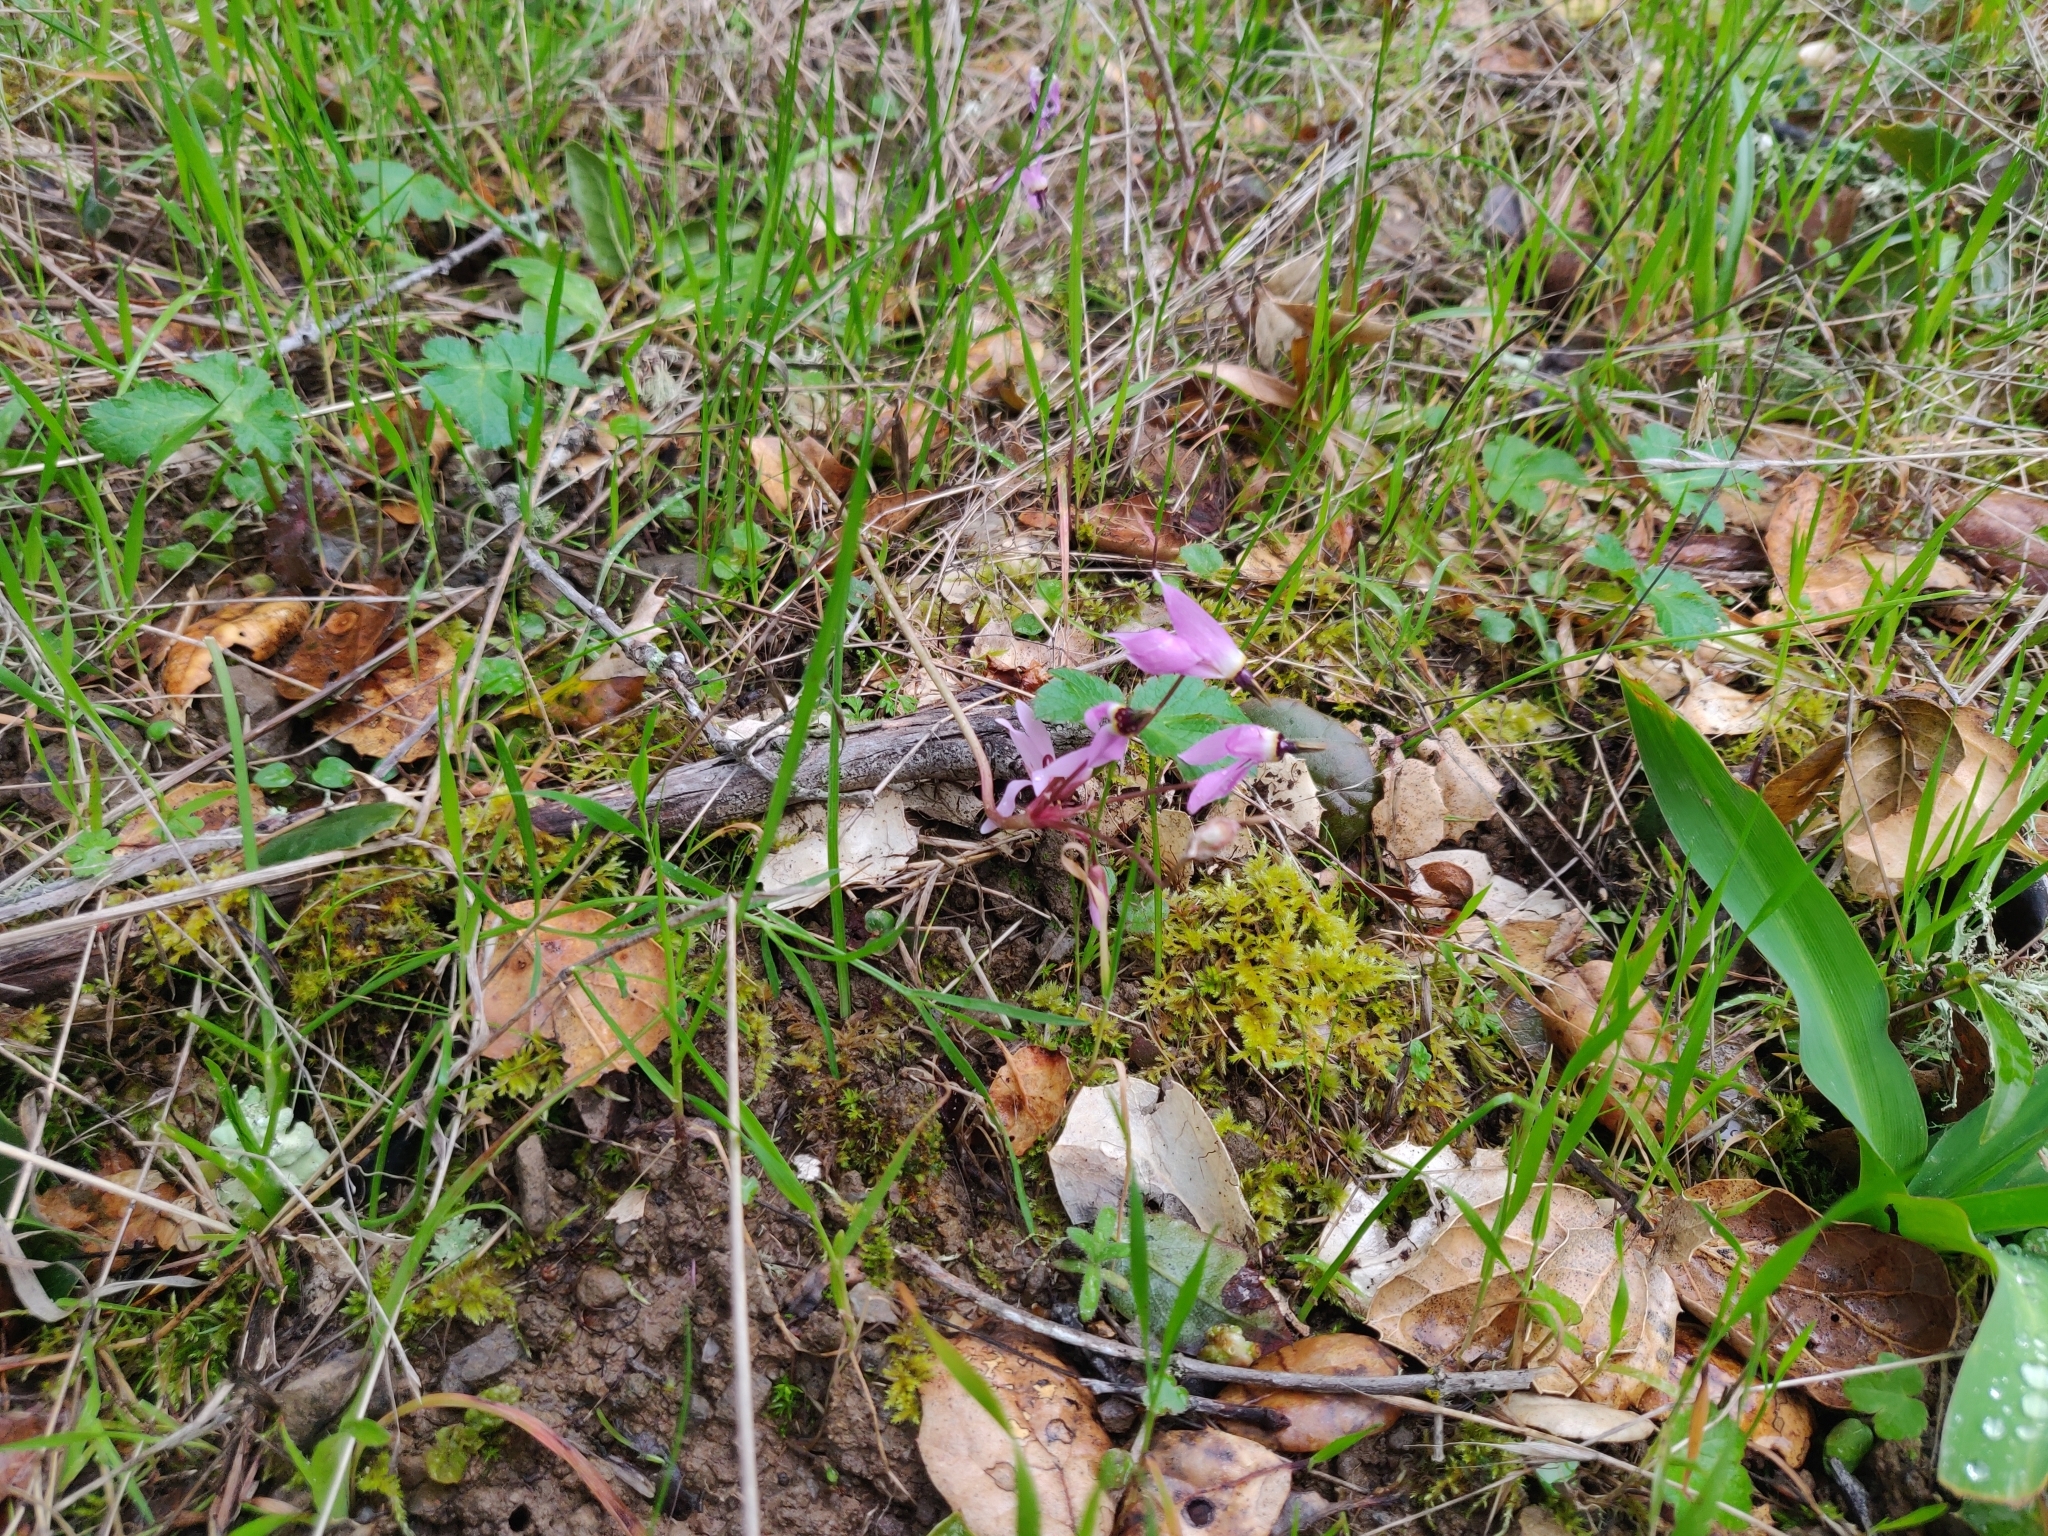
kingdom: Plantae
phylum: Tracheophyta
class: Magnoliopsida
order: Ericales
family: Primulaceae
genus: Dodecatheon
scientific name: Dodecatheon hendersonii
